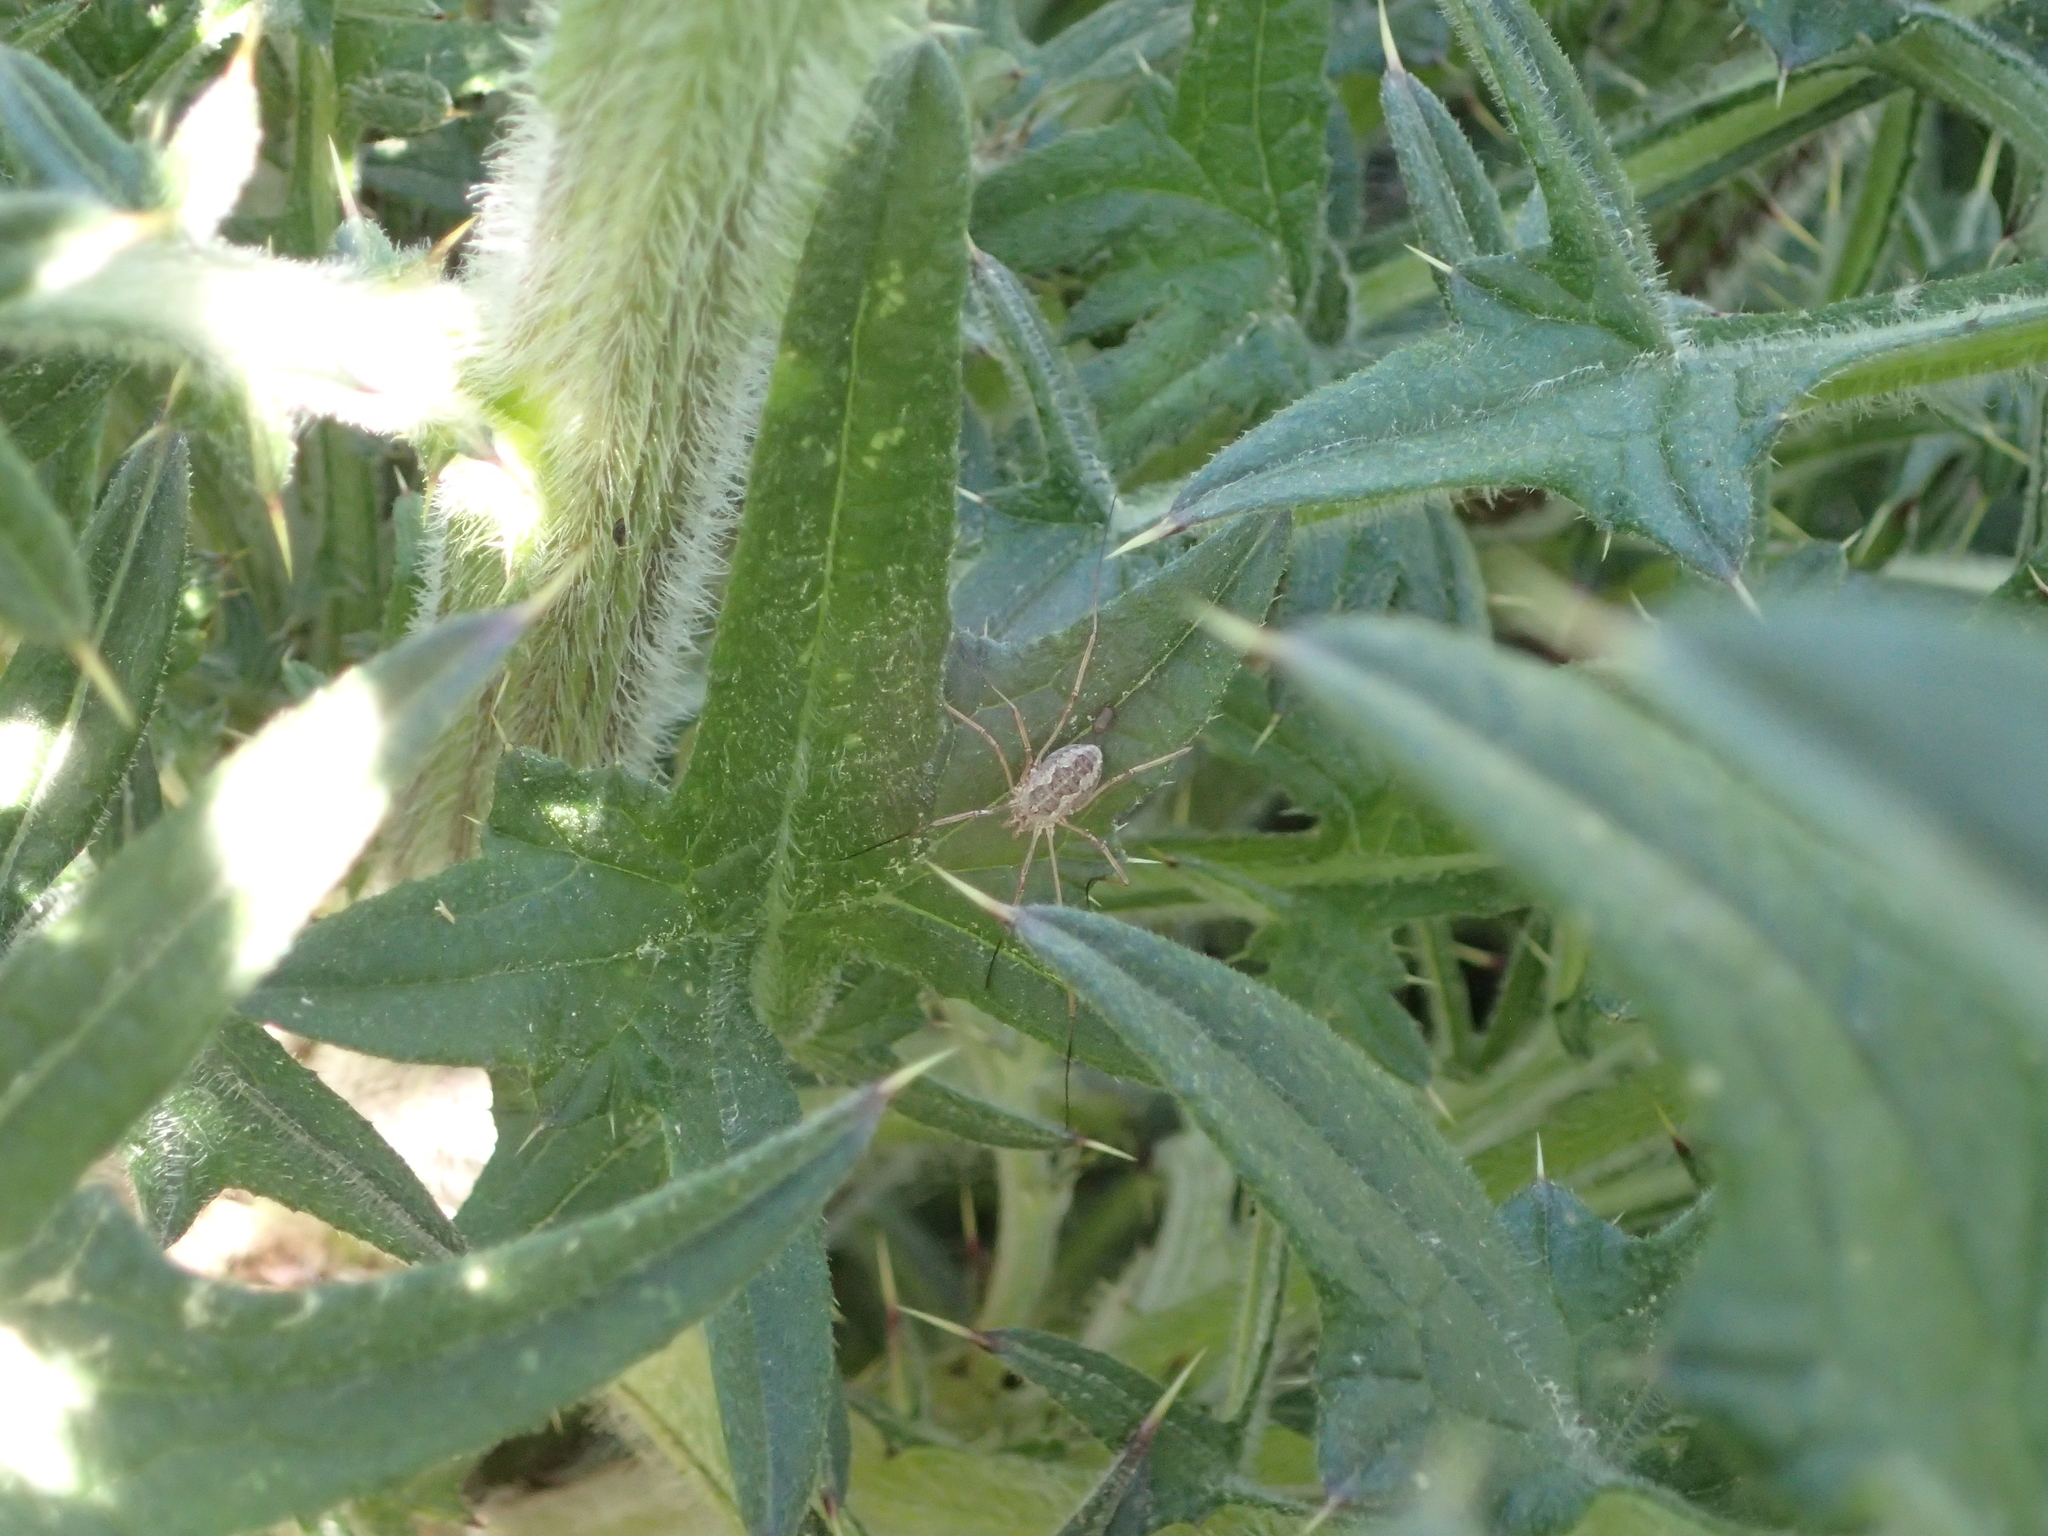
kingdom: Animalia
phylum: Arthropoda
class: Arachnida
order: Opiliones
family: Phalangiidae
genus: Phalangium
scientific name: Phalangium opilio
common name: Daddy longleg
